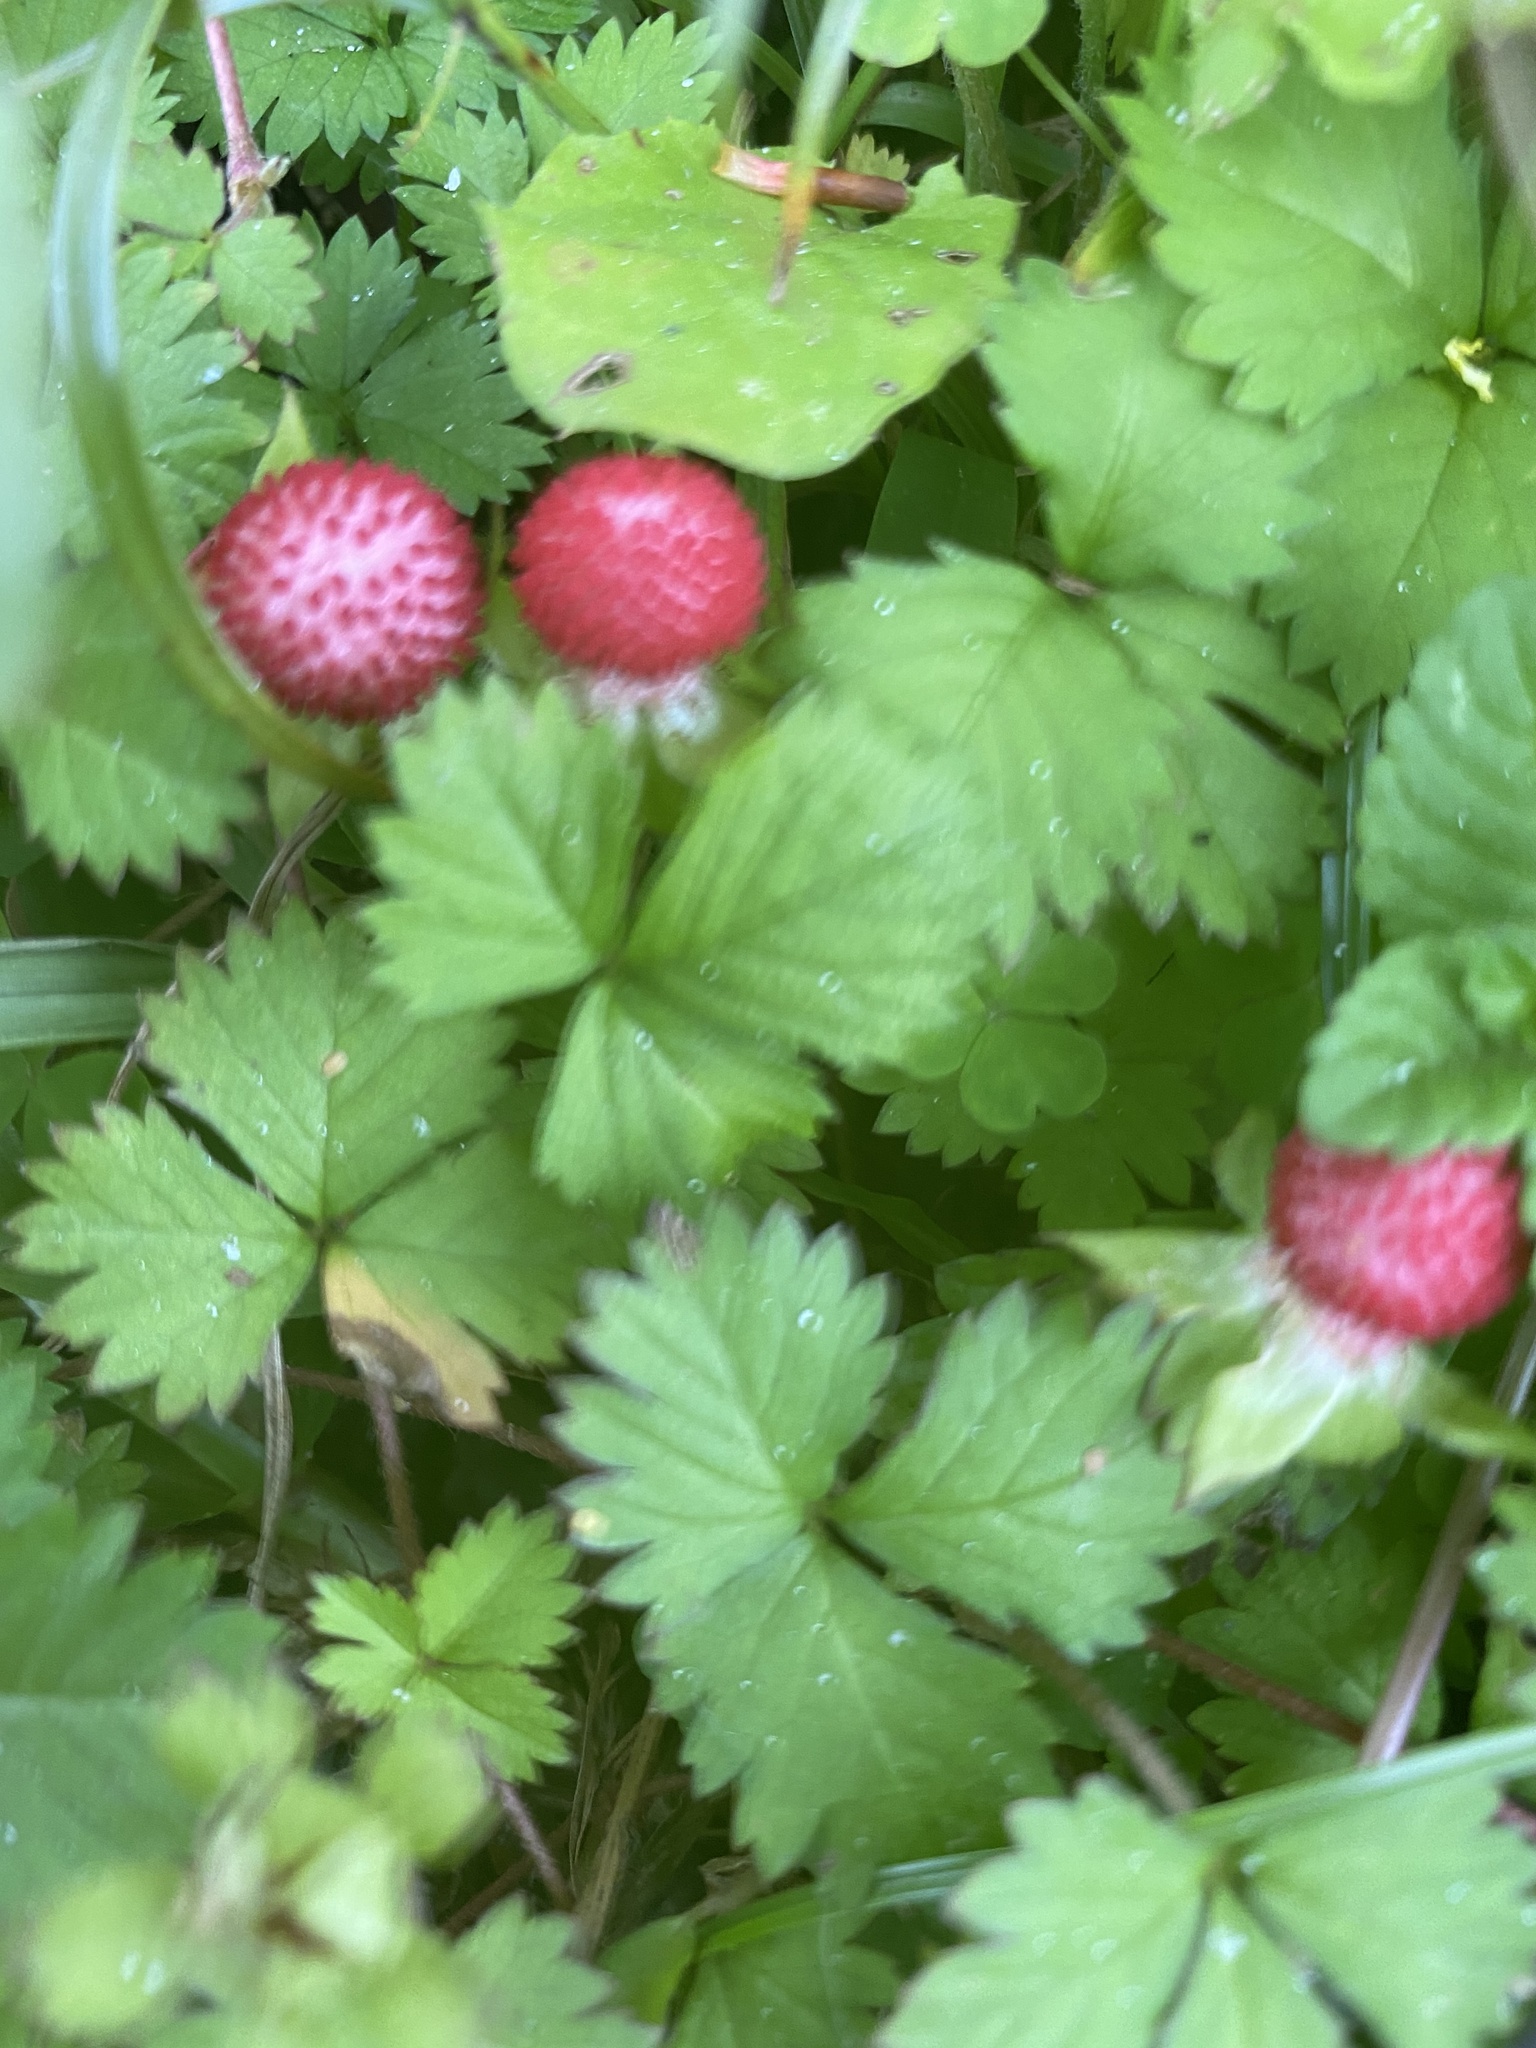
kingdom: Plantae
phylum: Tracheophyta
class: Magnoliopsida
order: Rosales
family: Rosaceae
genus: Potentilla
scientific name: Potentilla wallichiana
